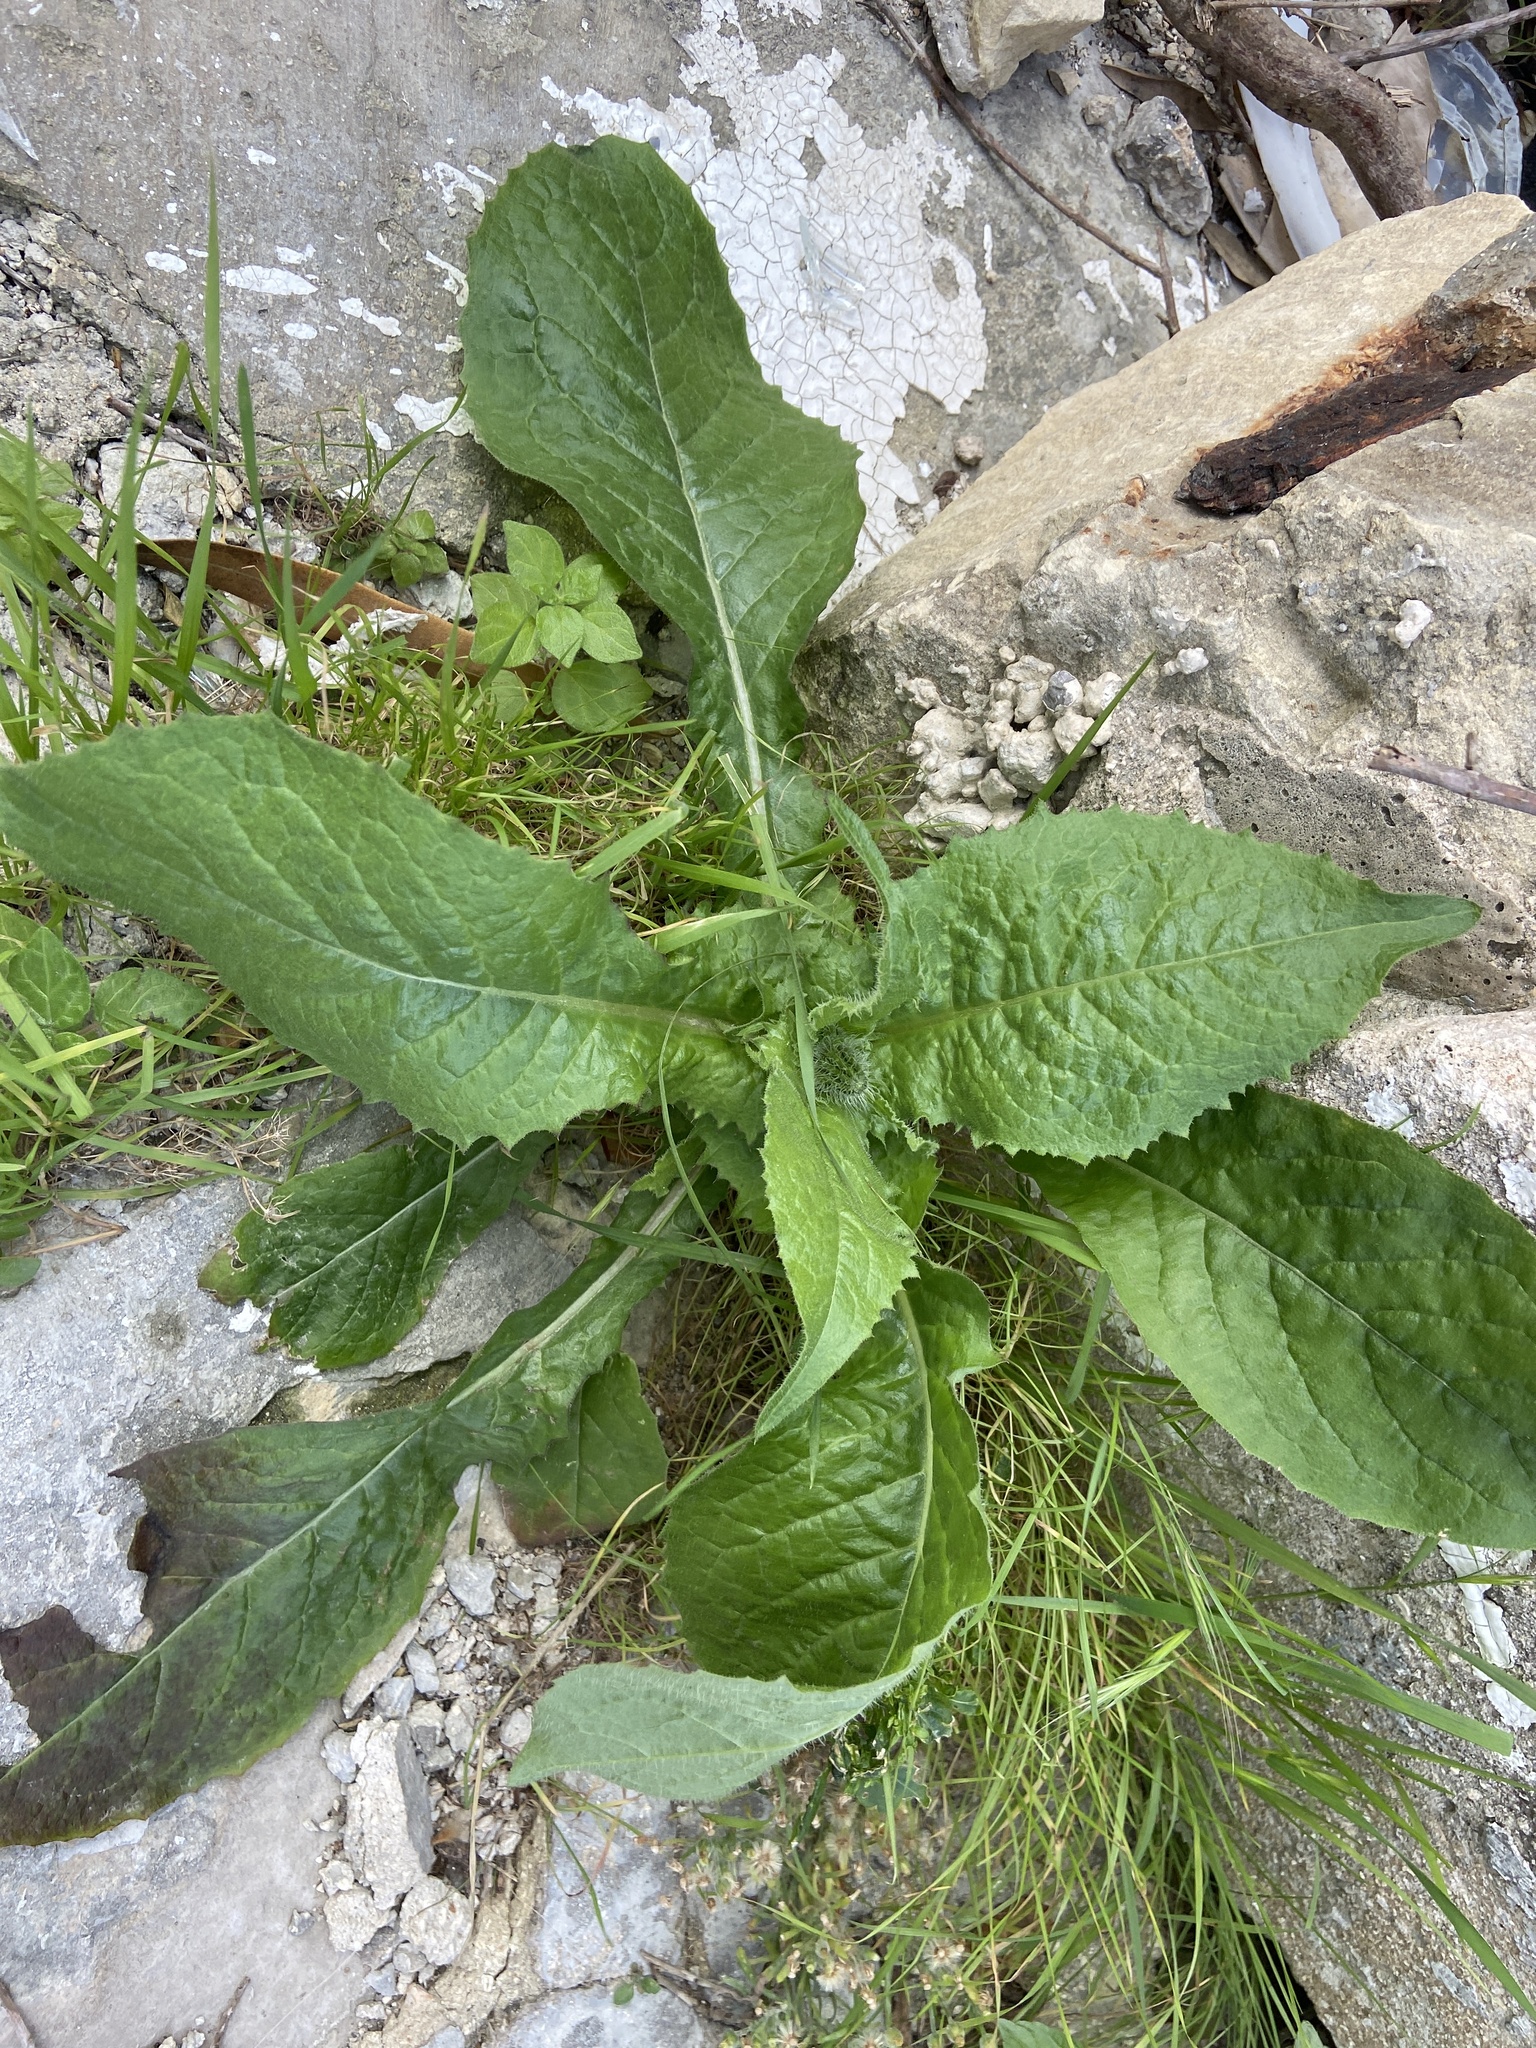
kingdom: Plantae
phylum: Tracheophyta
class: Magnoliopsida
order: Asterales
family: Asteraceae
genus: Urospermum
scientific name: Urospermum picroides
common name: False hawkbit
